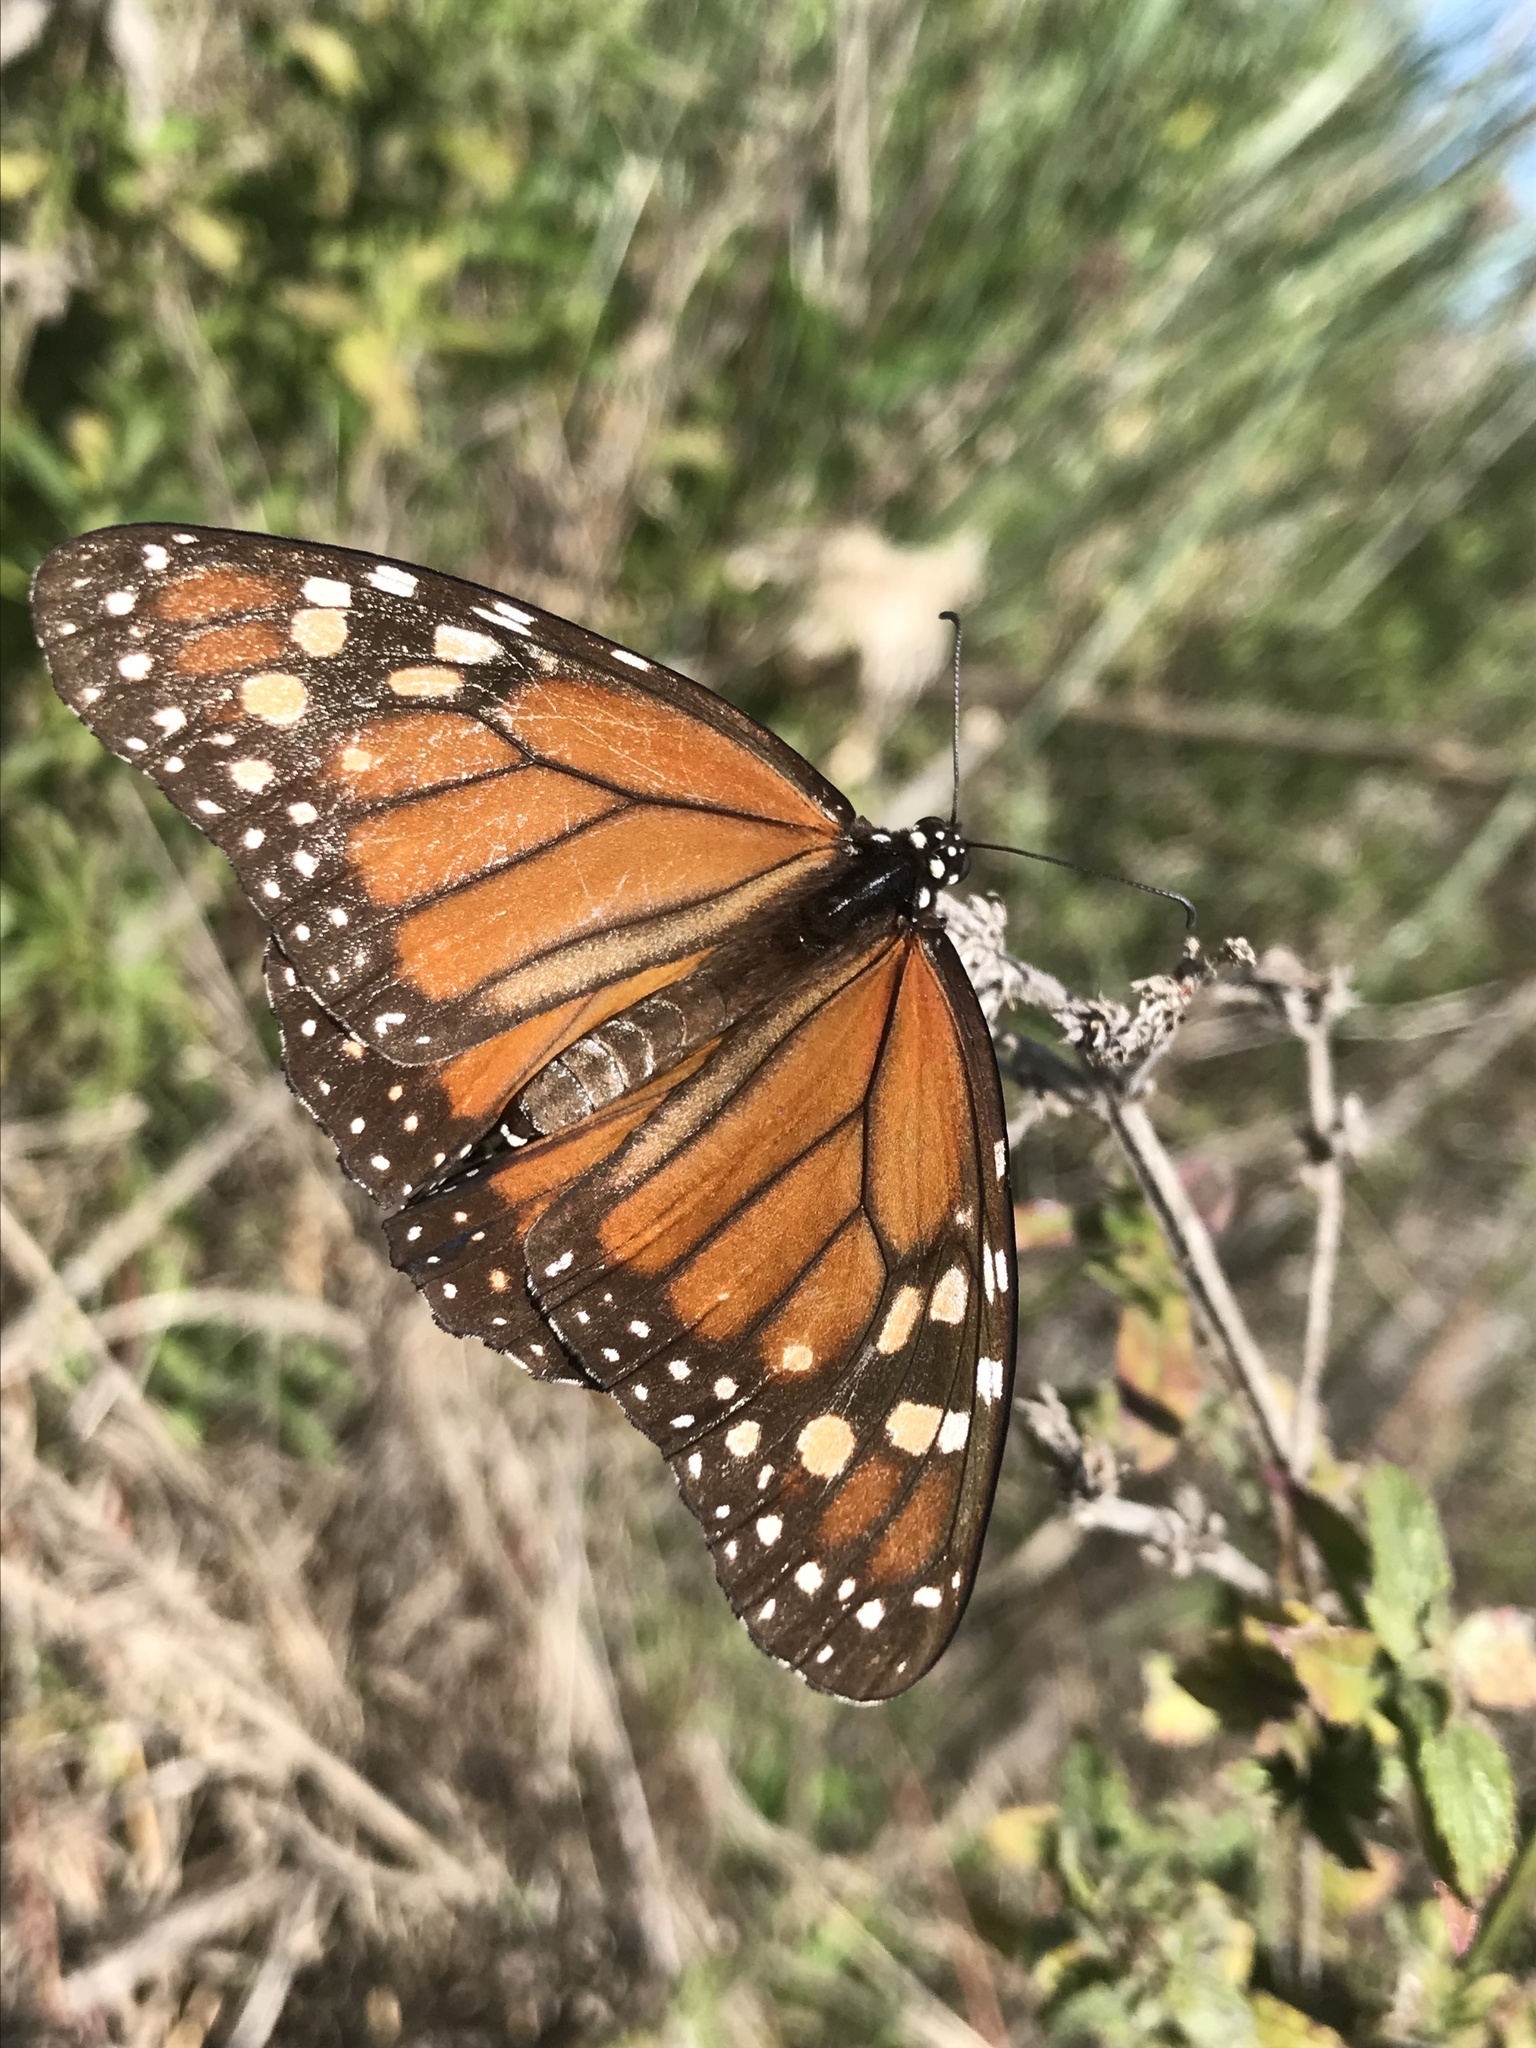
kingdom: Animalia
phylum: Arthropoda
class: Insecta
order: Lepidoptera
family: Nymphalidae
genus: Danaus
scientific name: Danaus erippus
